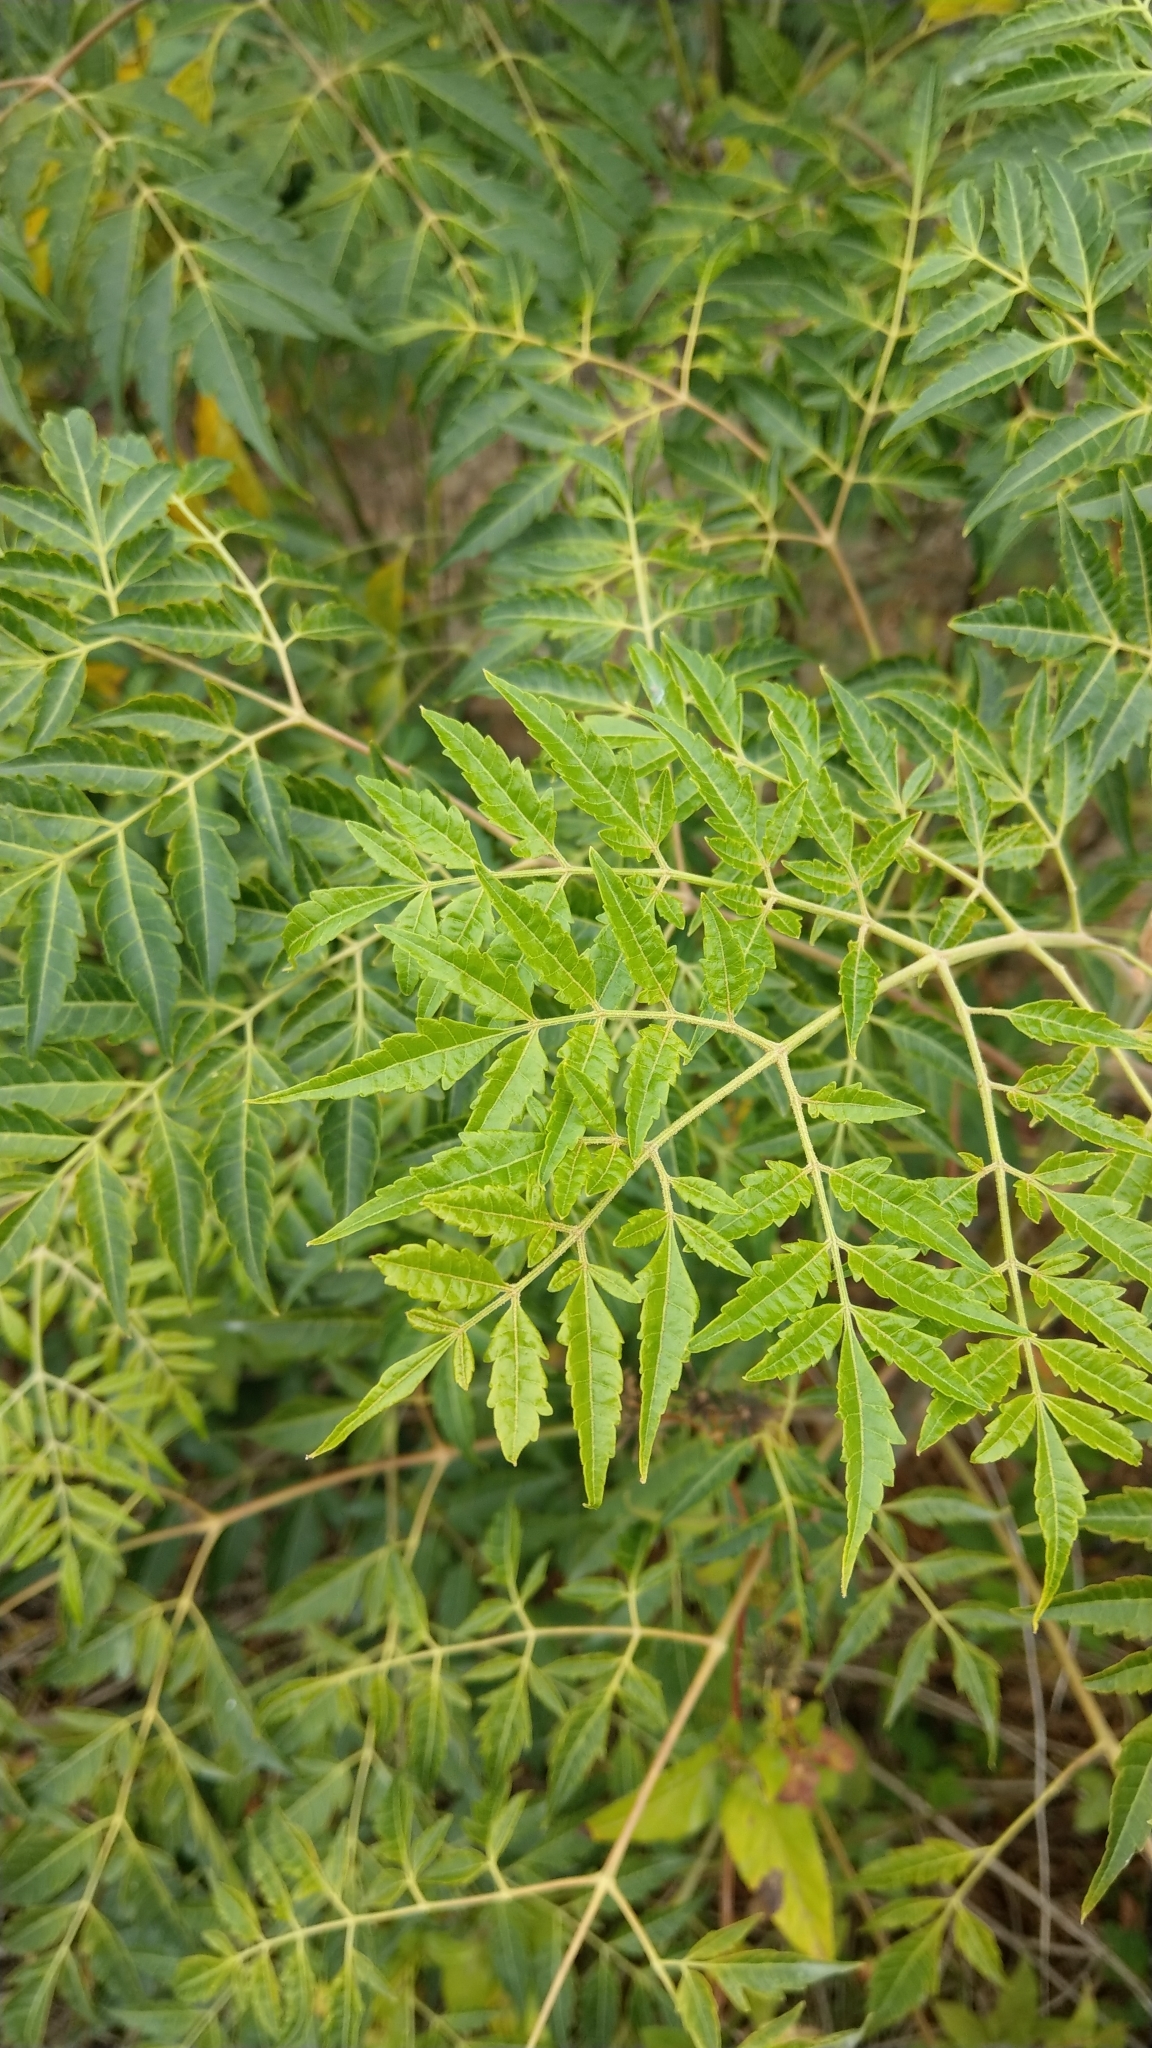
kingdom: Plantae
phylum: Tracheophyta
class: Magnoliopsida
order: Sapindales
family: Meliaceae
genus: Melia
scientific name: Melia azedarach
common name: Chinaberrytree
